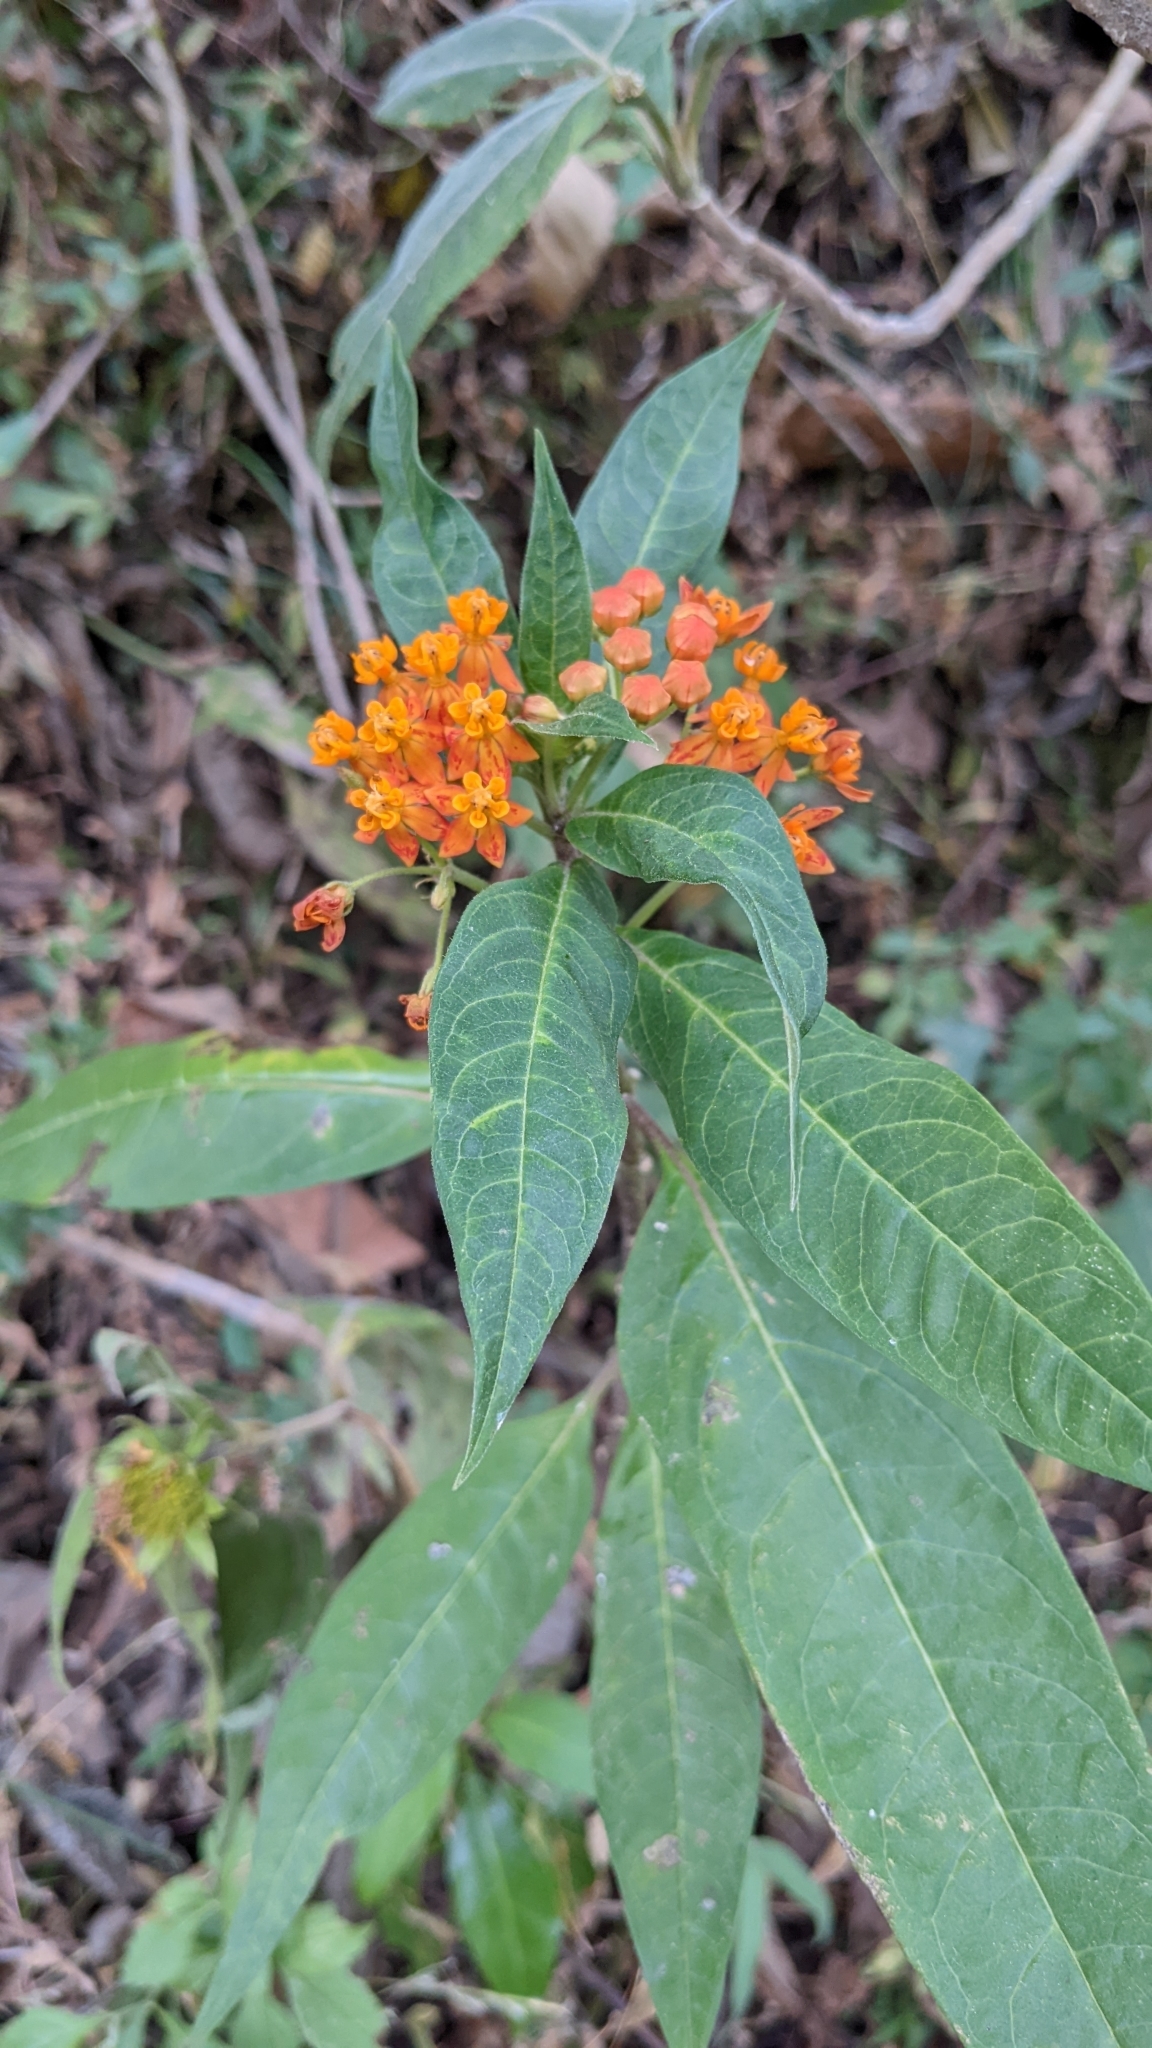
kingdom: Plantae
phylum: Tracheophyta
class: Magnoliopsida
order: Gentianales
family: Apocynaceae
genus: Asclepias
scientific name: Asclepias curassavica
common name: Bloodflower
